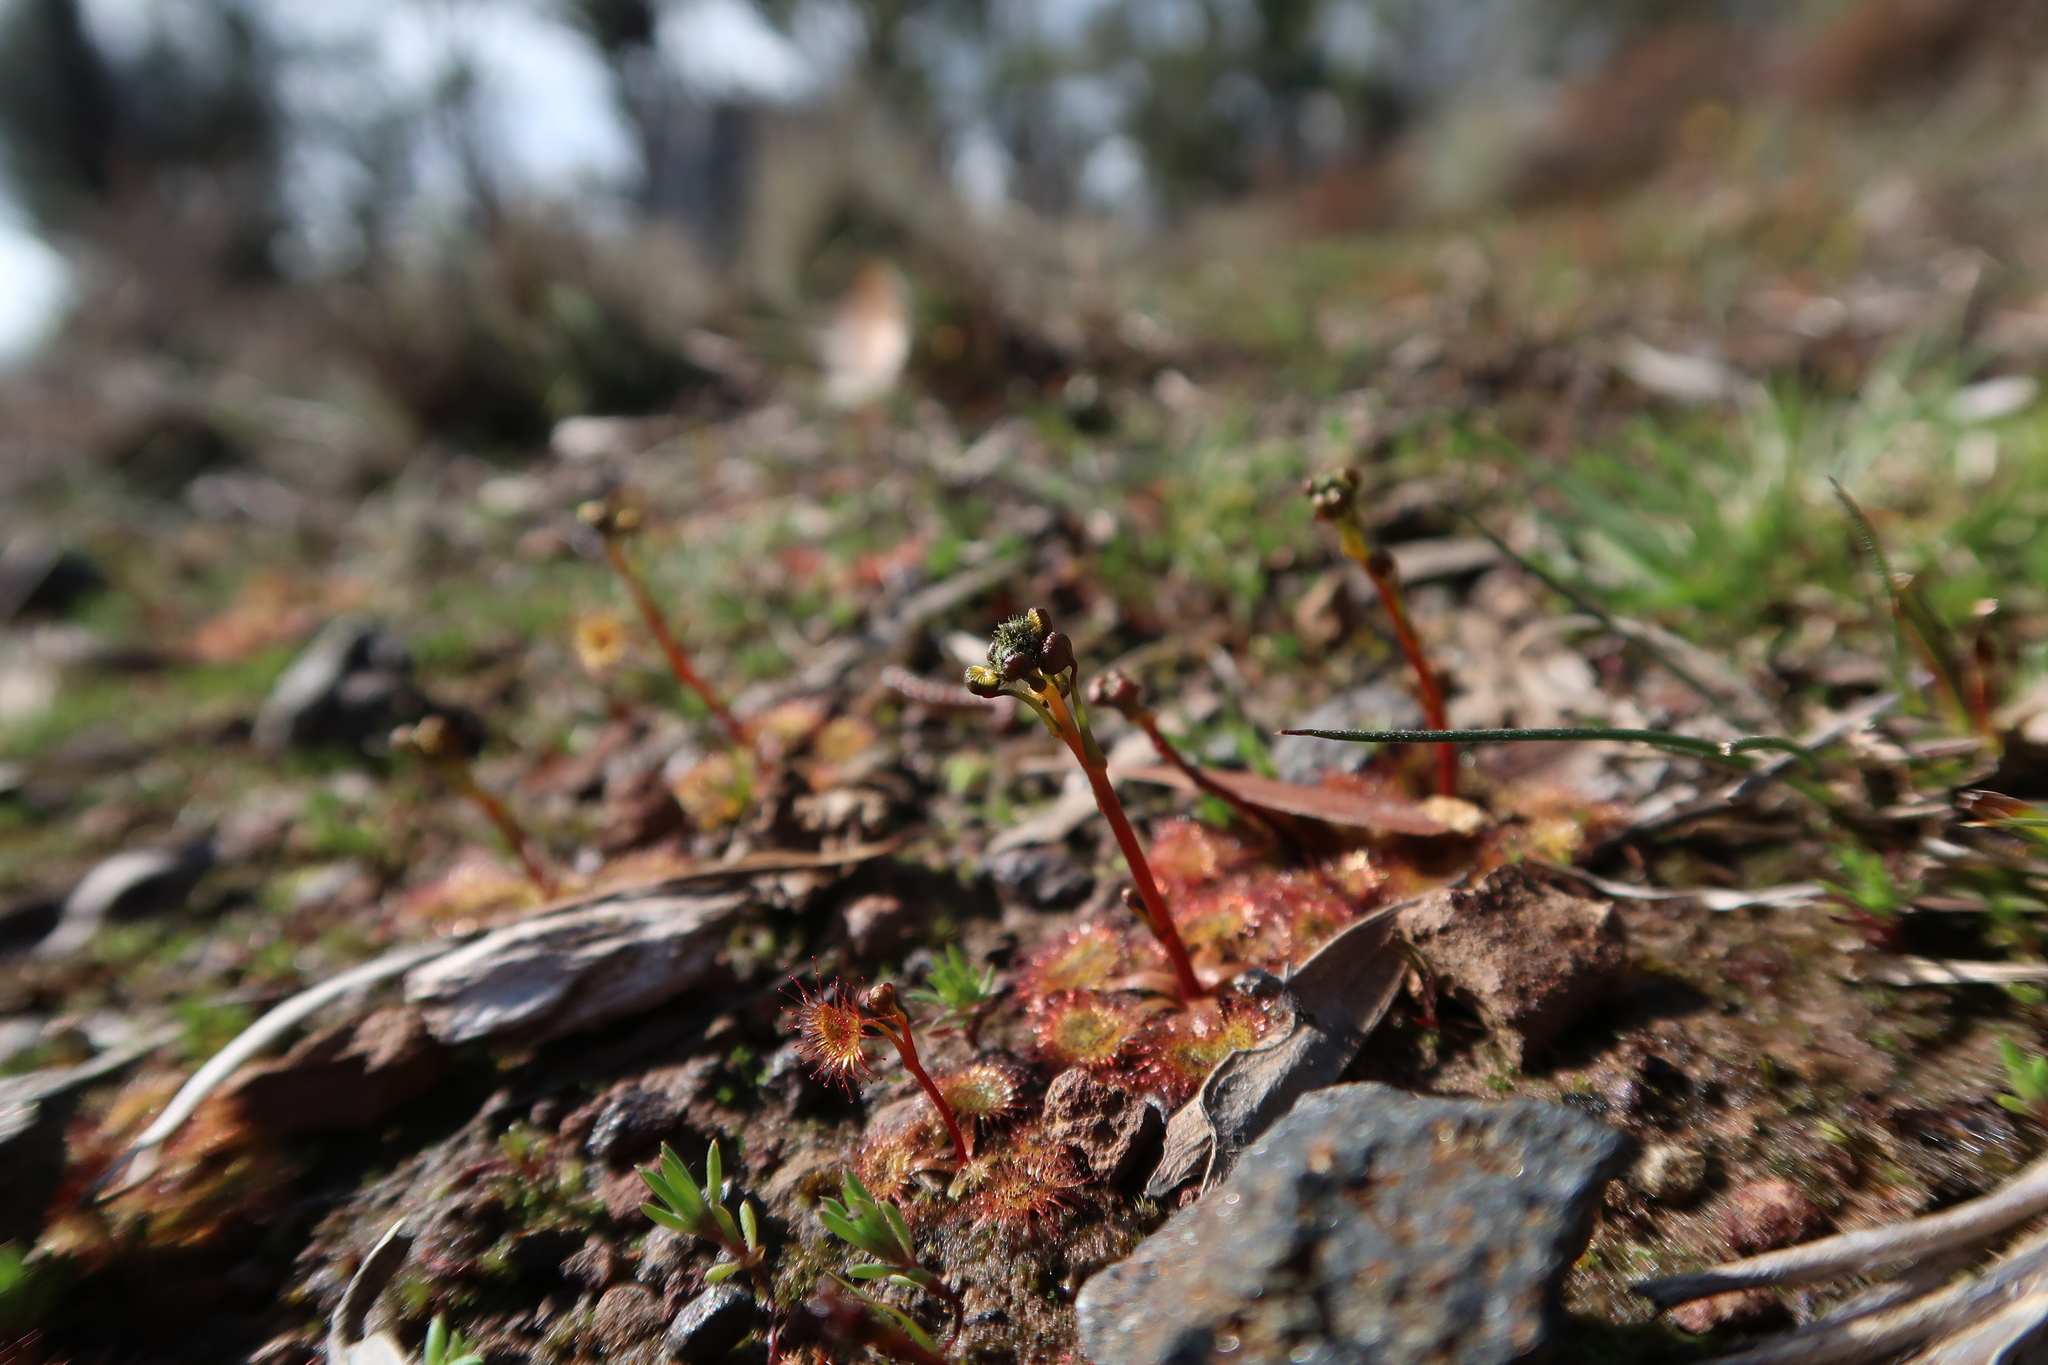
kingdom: Plantae
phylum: Tracheophyta
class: Magnoliopsida
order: Caryophyllales
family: Droseraceae
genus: Drosera
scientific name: Drosera gunniana
